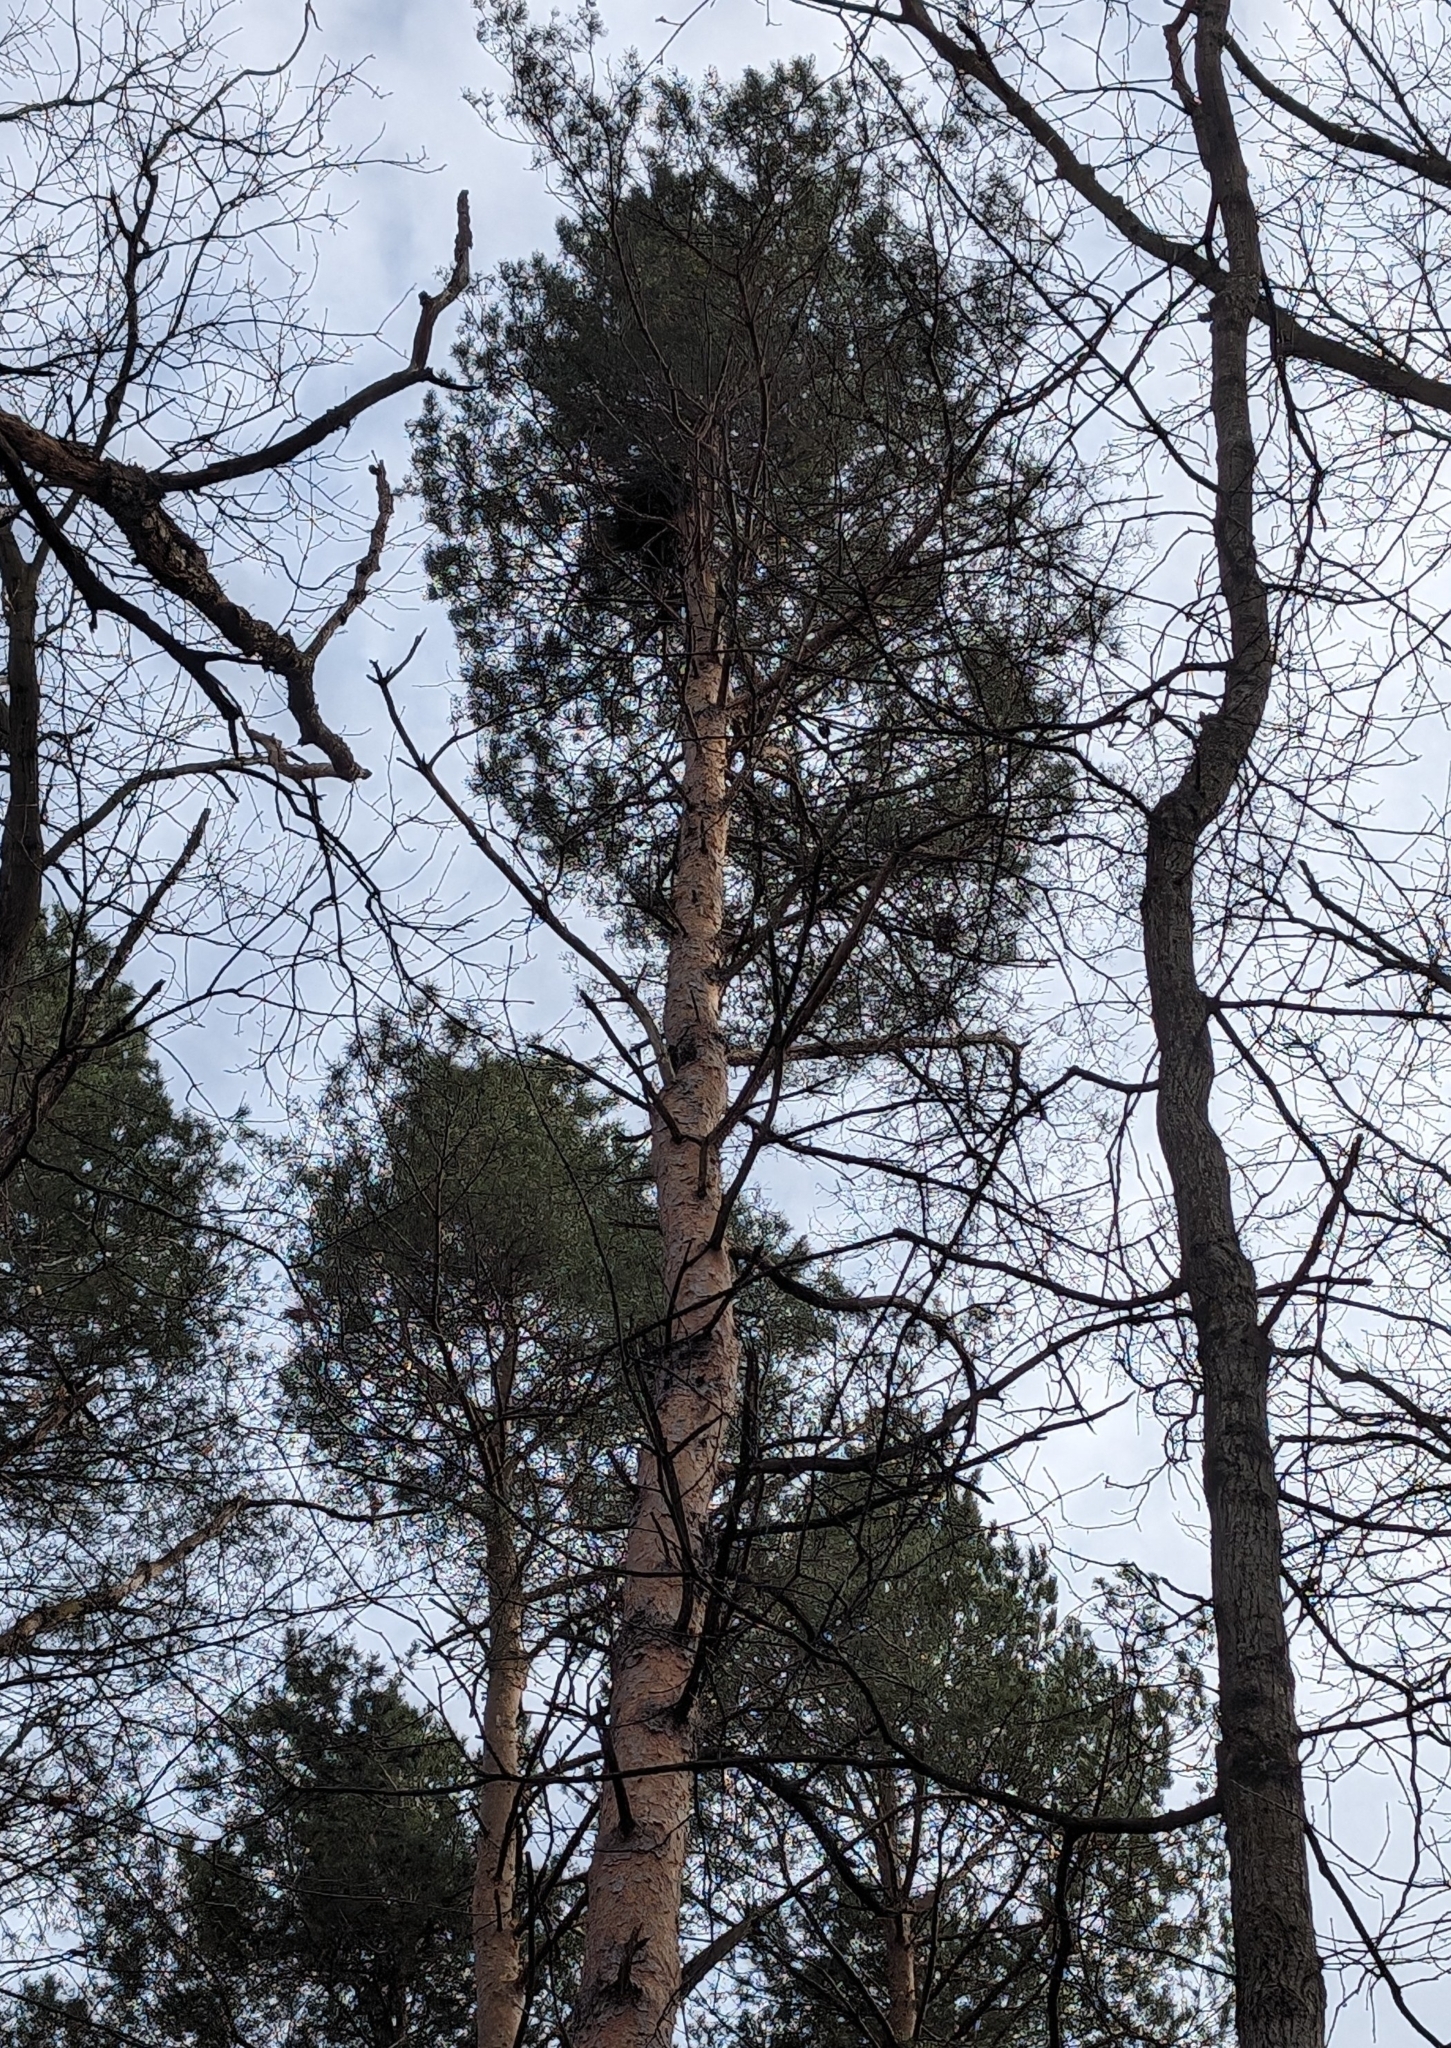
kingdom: Plantae
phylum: Tracheophyta
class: Pinopsida
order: Pinales
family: Pinaceae
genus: Pinus
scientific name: Pinus resinosa
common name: Norway pine
